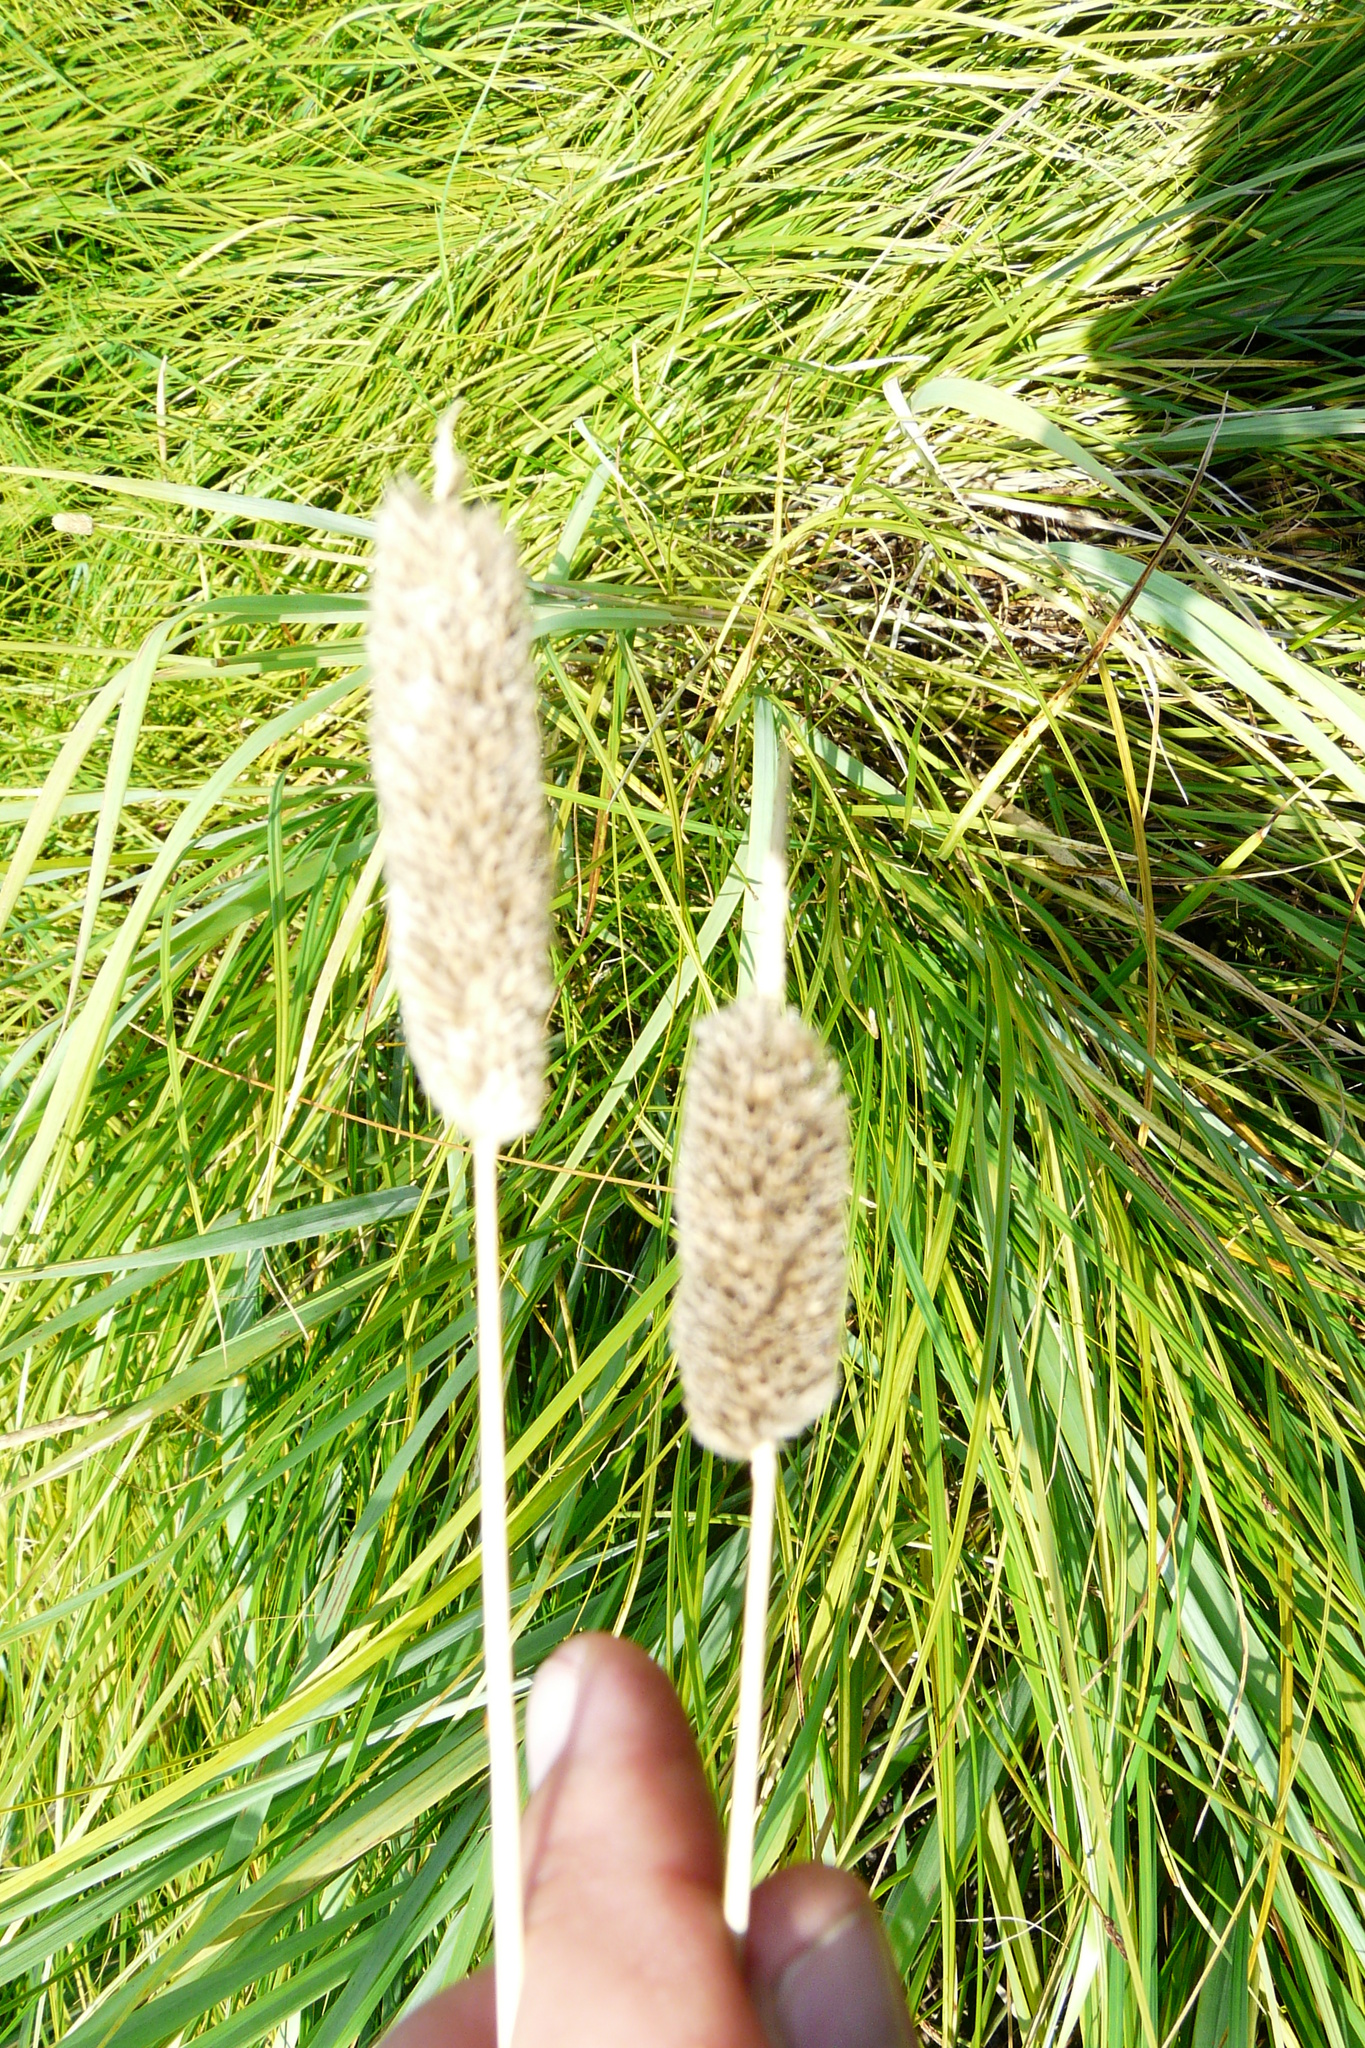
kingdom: Plantae
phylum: Tracheophyta
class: Liliopsida
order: Poales
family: Poaceae
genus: Alopecurus
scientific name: Alopecurus arundinaceus
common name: Creeping meadow foxtail
